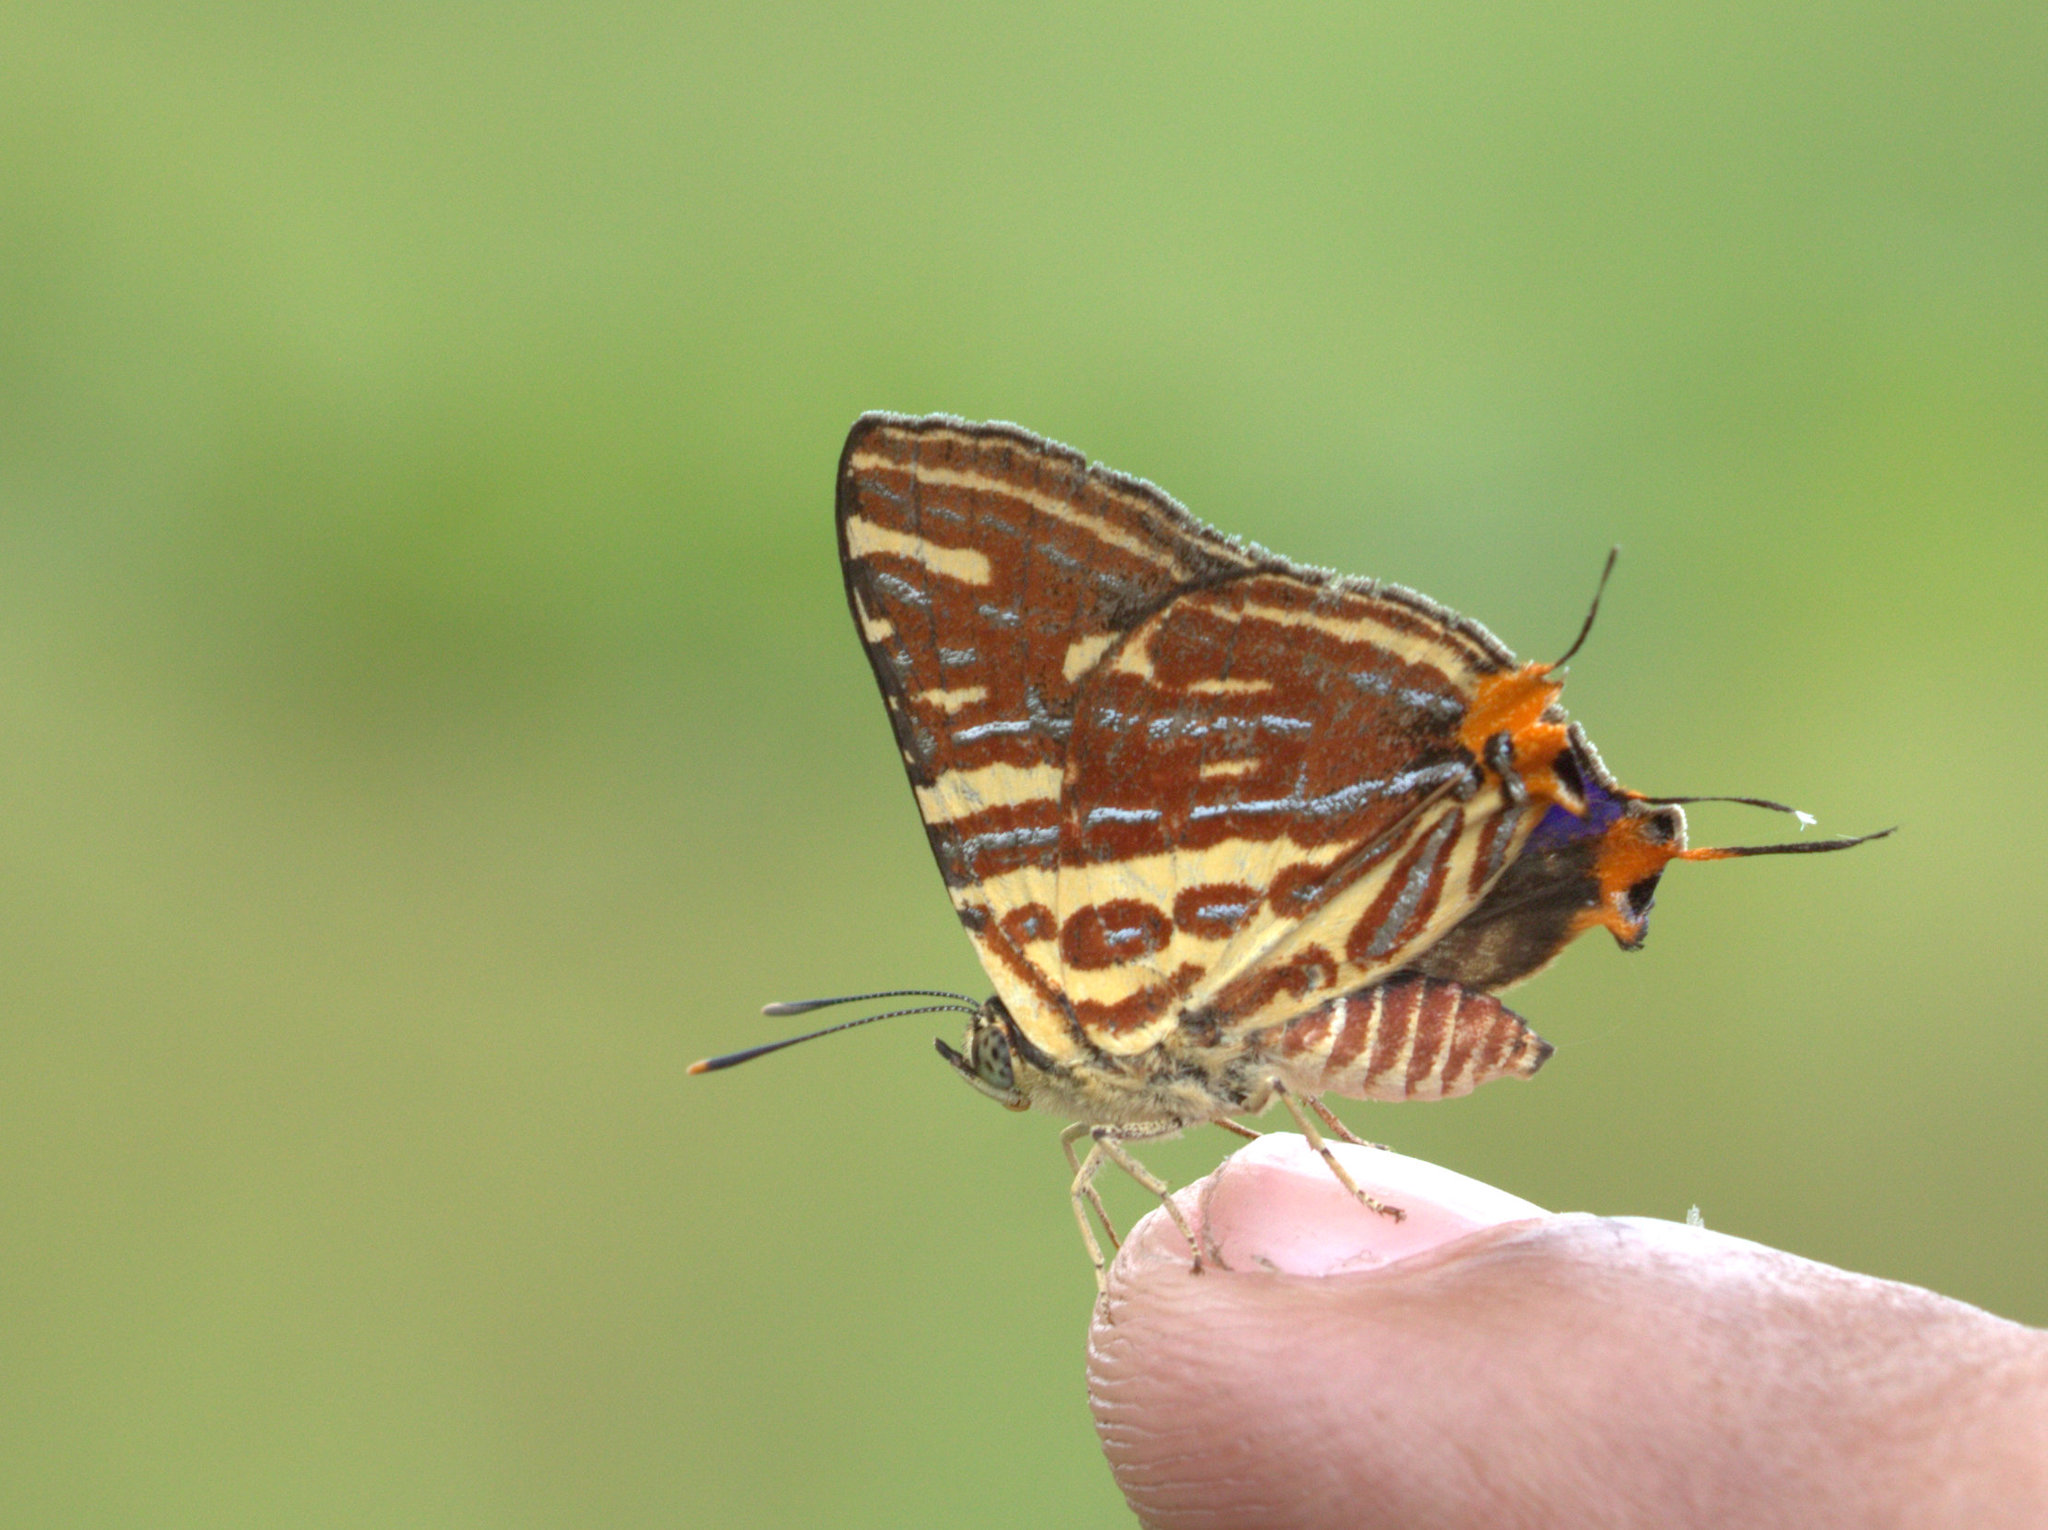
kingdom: Animalia
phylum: Arthropoda
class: Insecta
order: Lepidoptera
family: Lycaenidae
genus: Cigaritis
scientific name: Cigaritis lohita
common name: Long-banded silverline
